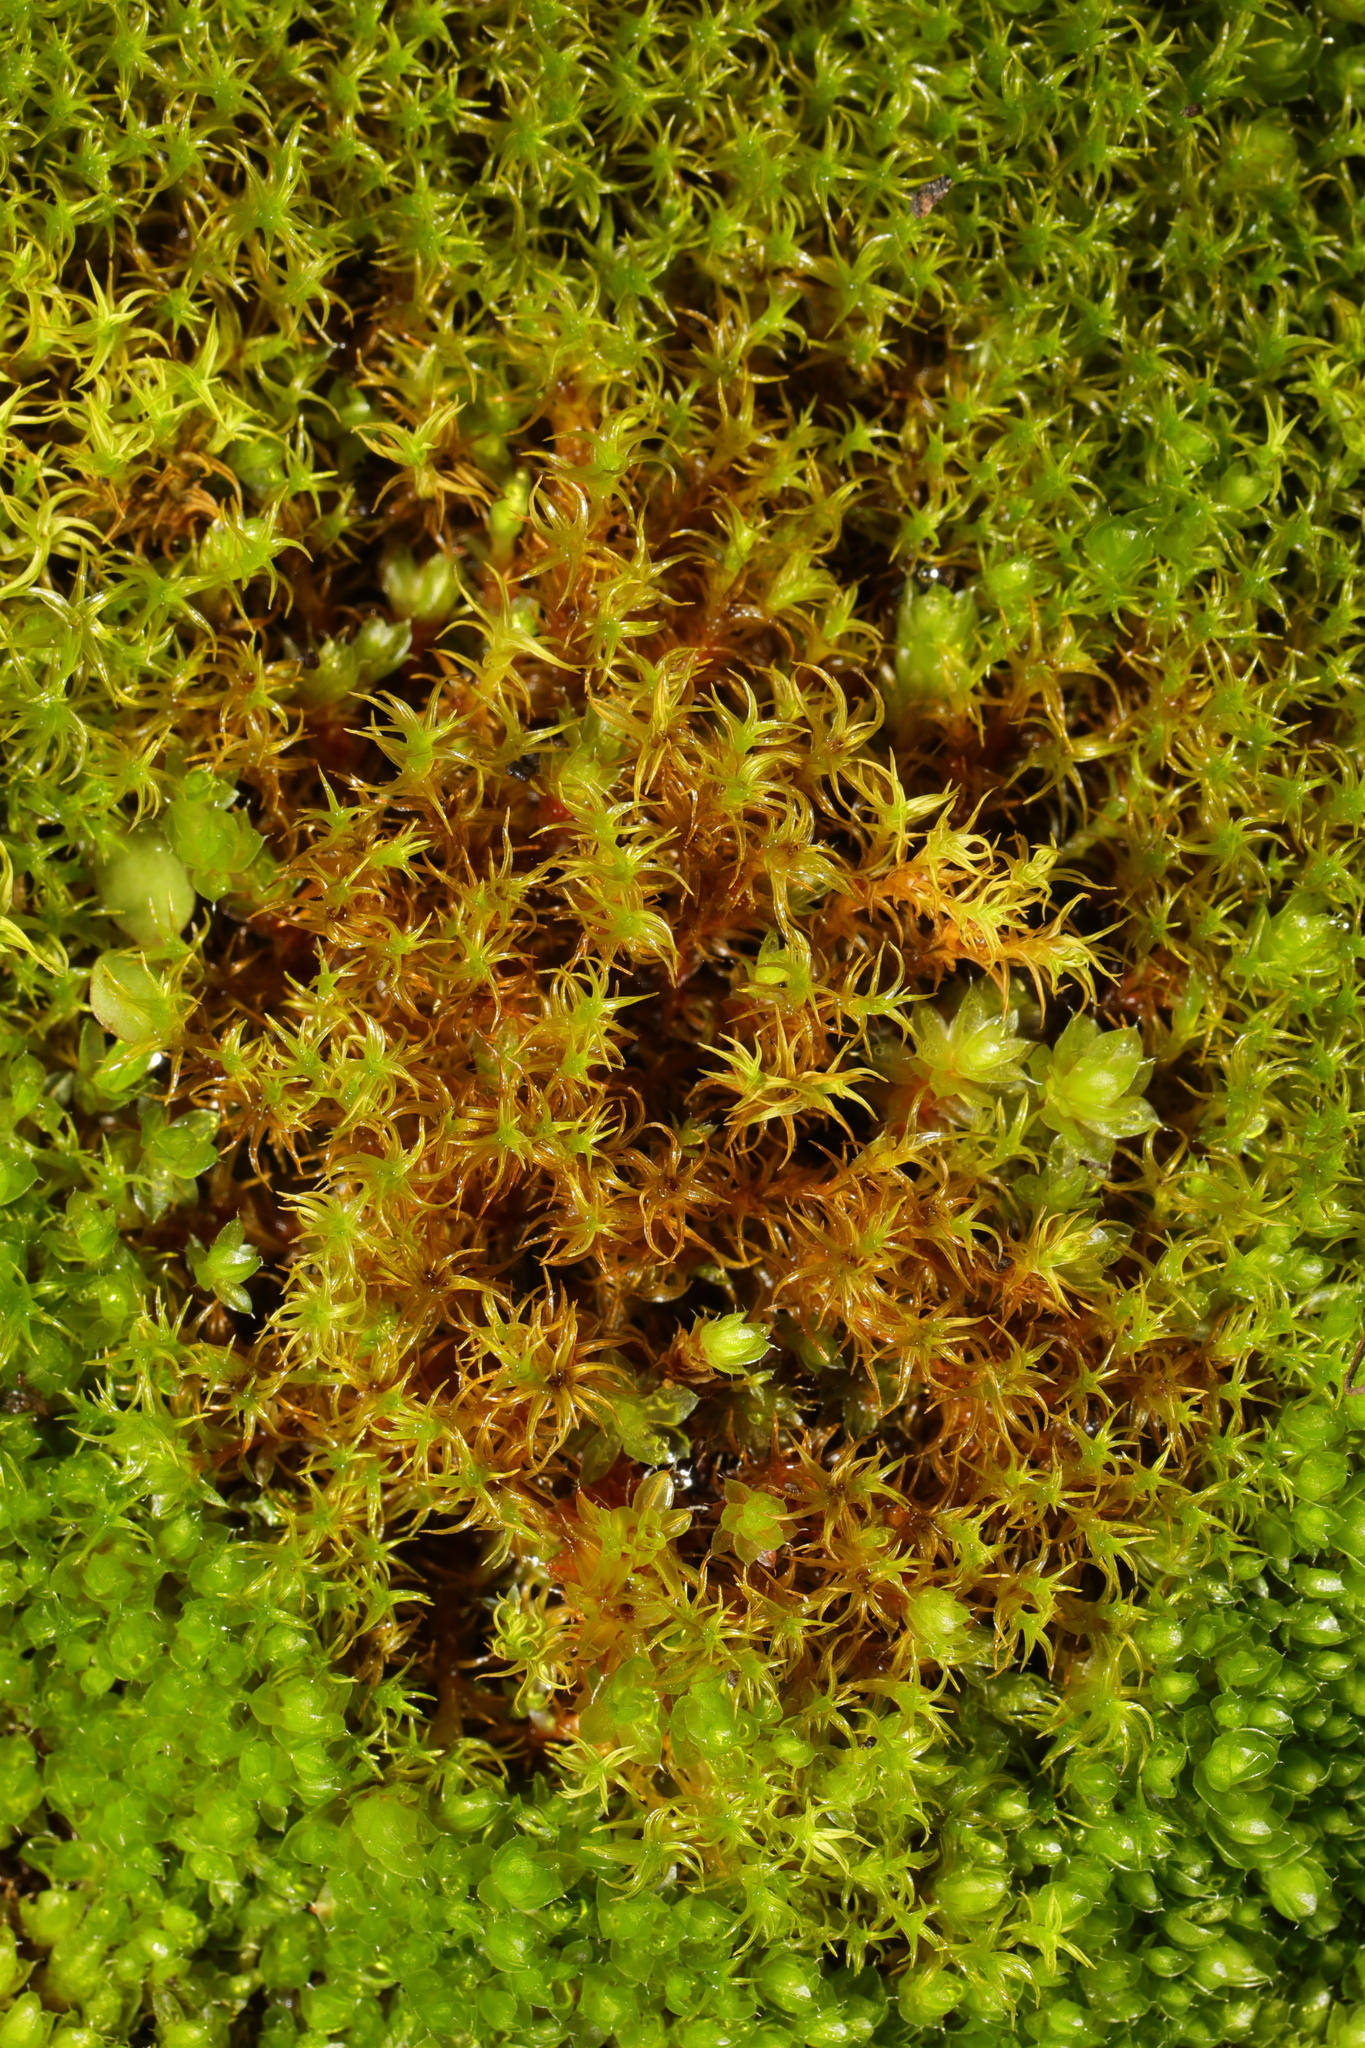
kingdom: Plantae
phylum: Bryophyta
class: Bryopsida
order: Pottiales
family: Pottiaceae
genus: Vinealobryum
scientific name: Vinealobryum insulanum
